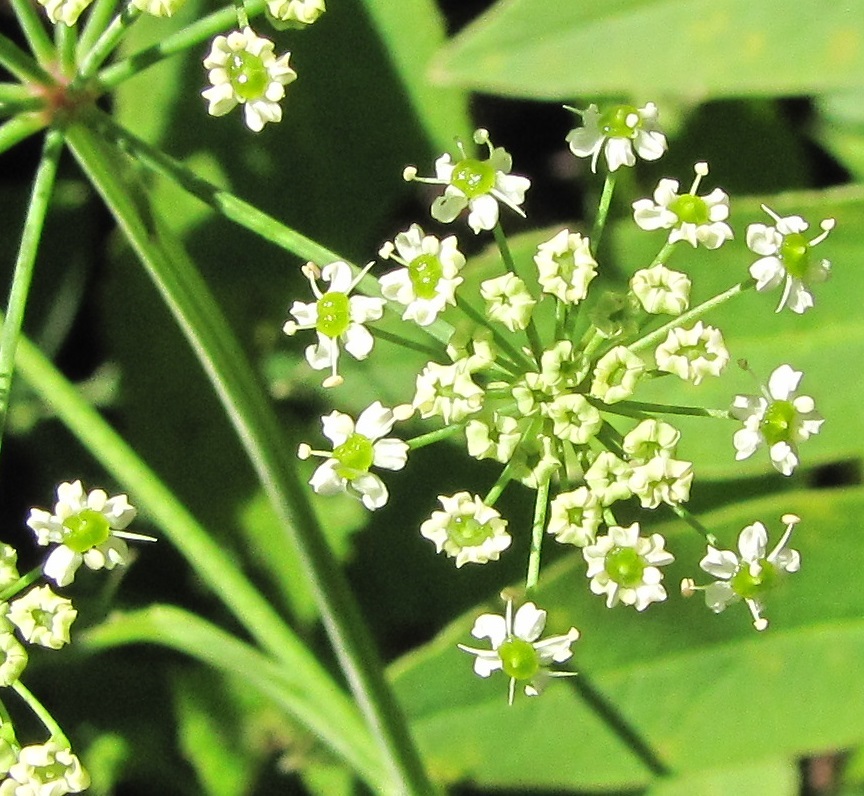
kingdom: Plantae
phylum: Tracheophyta
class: Magnoliopsida
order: Apiales
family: Apiaceae
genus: Oxypolis
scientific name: Oxypolis rigidior
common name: Cowbane
